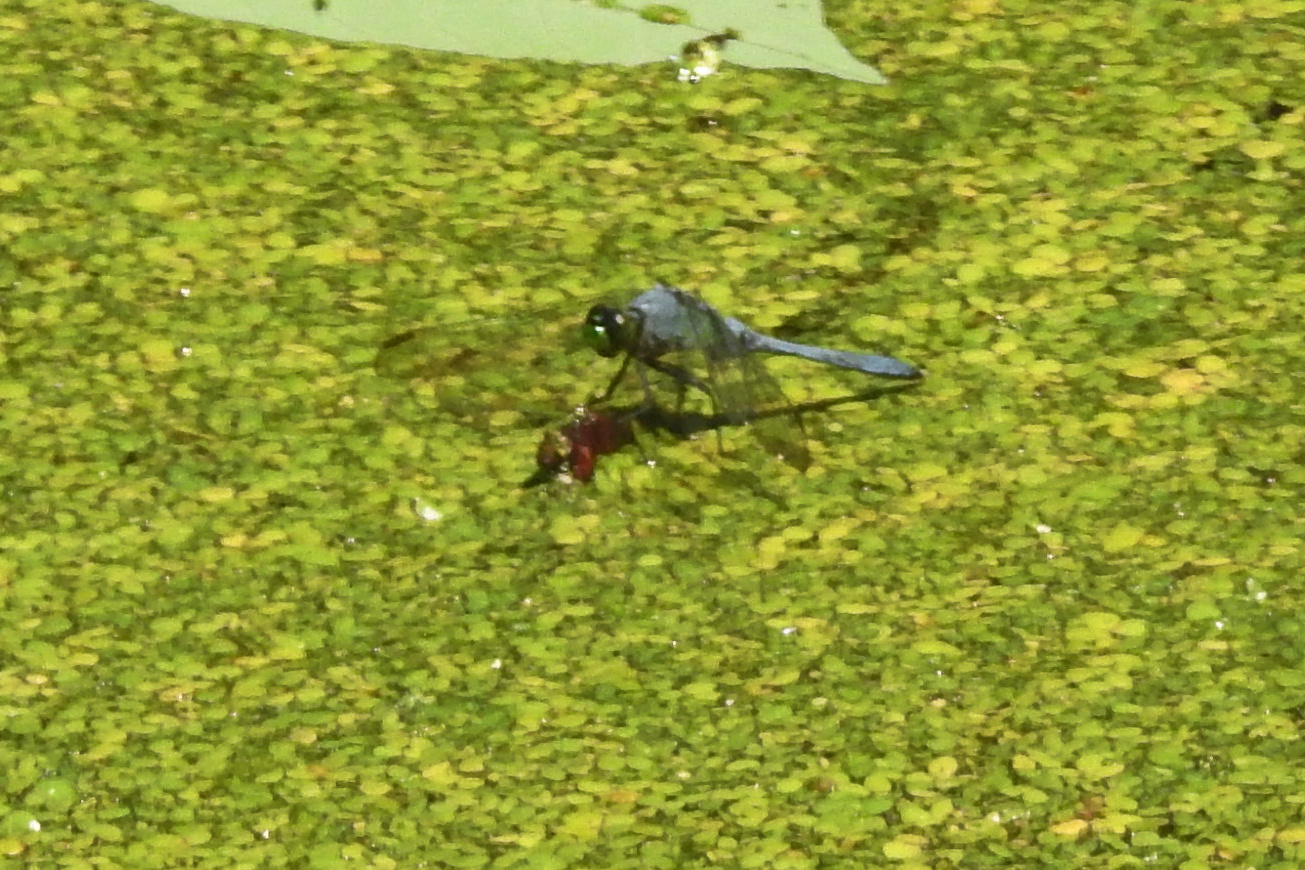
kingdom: Animalia
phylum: Arthropoda
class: Insecta
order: Odonata
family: Libellulidae
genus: Erythemis
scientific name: Erythemis simplicicollis
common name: Eastern pondhawk
